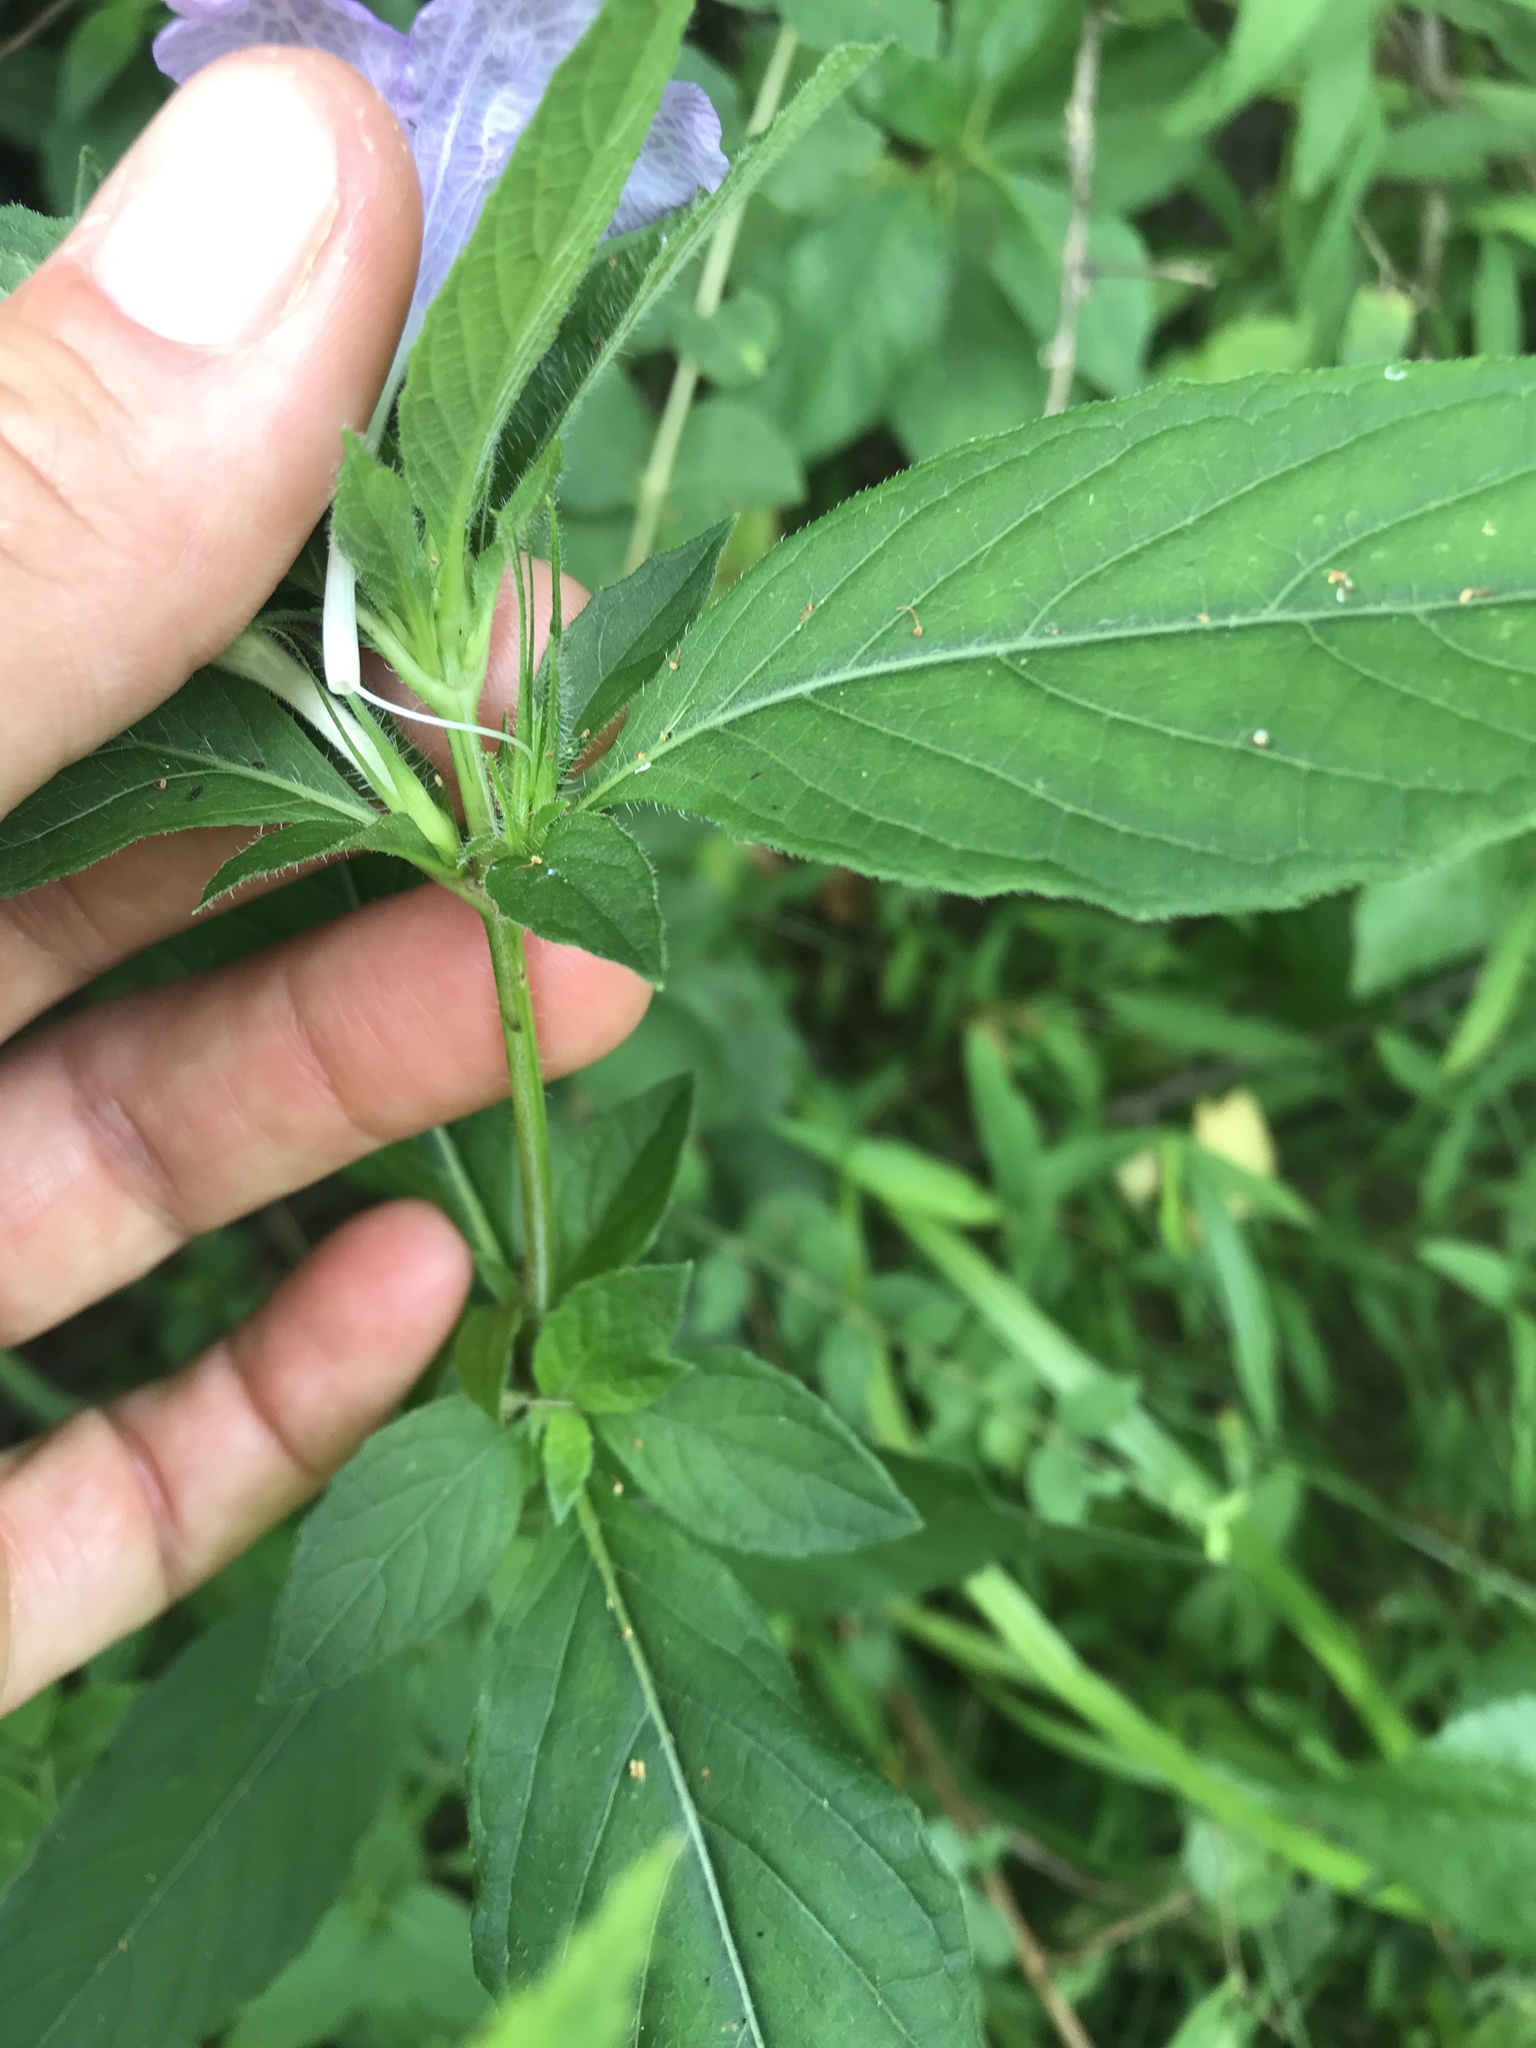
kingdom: Plantae
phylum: Tracheophyta
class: Magnoliopsida
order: Lamiales
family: Acanthaceae
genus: Ruellia
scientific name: Ruellia caroliniensis
